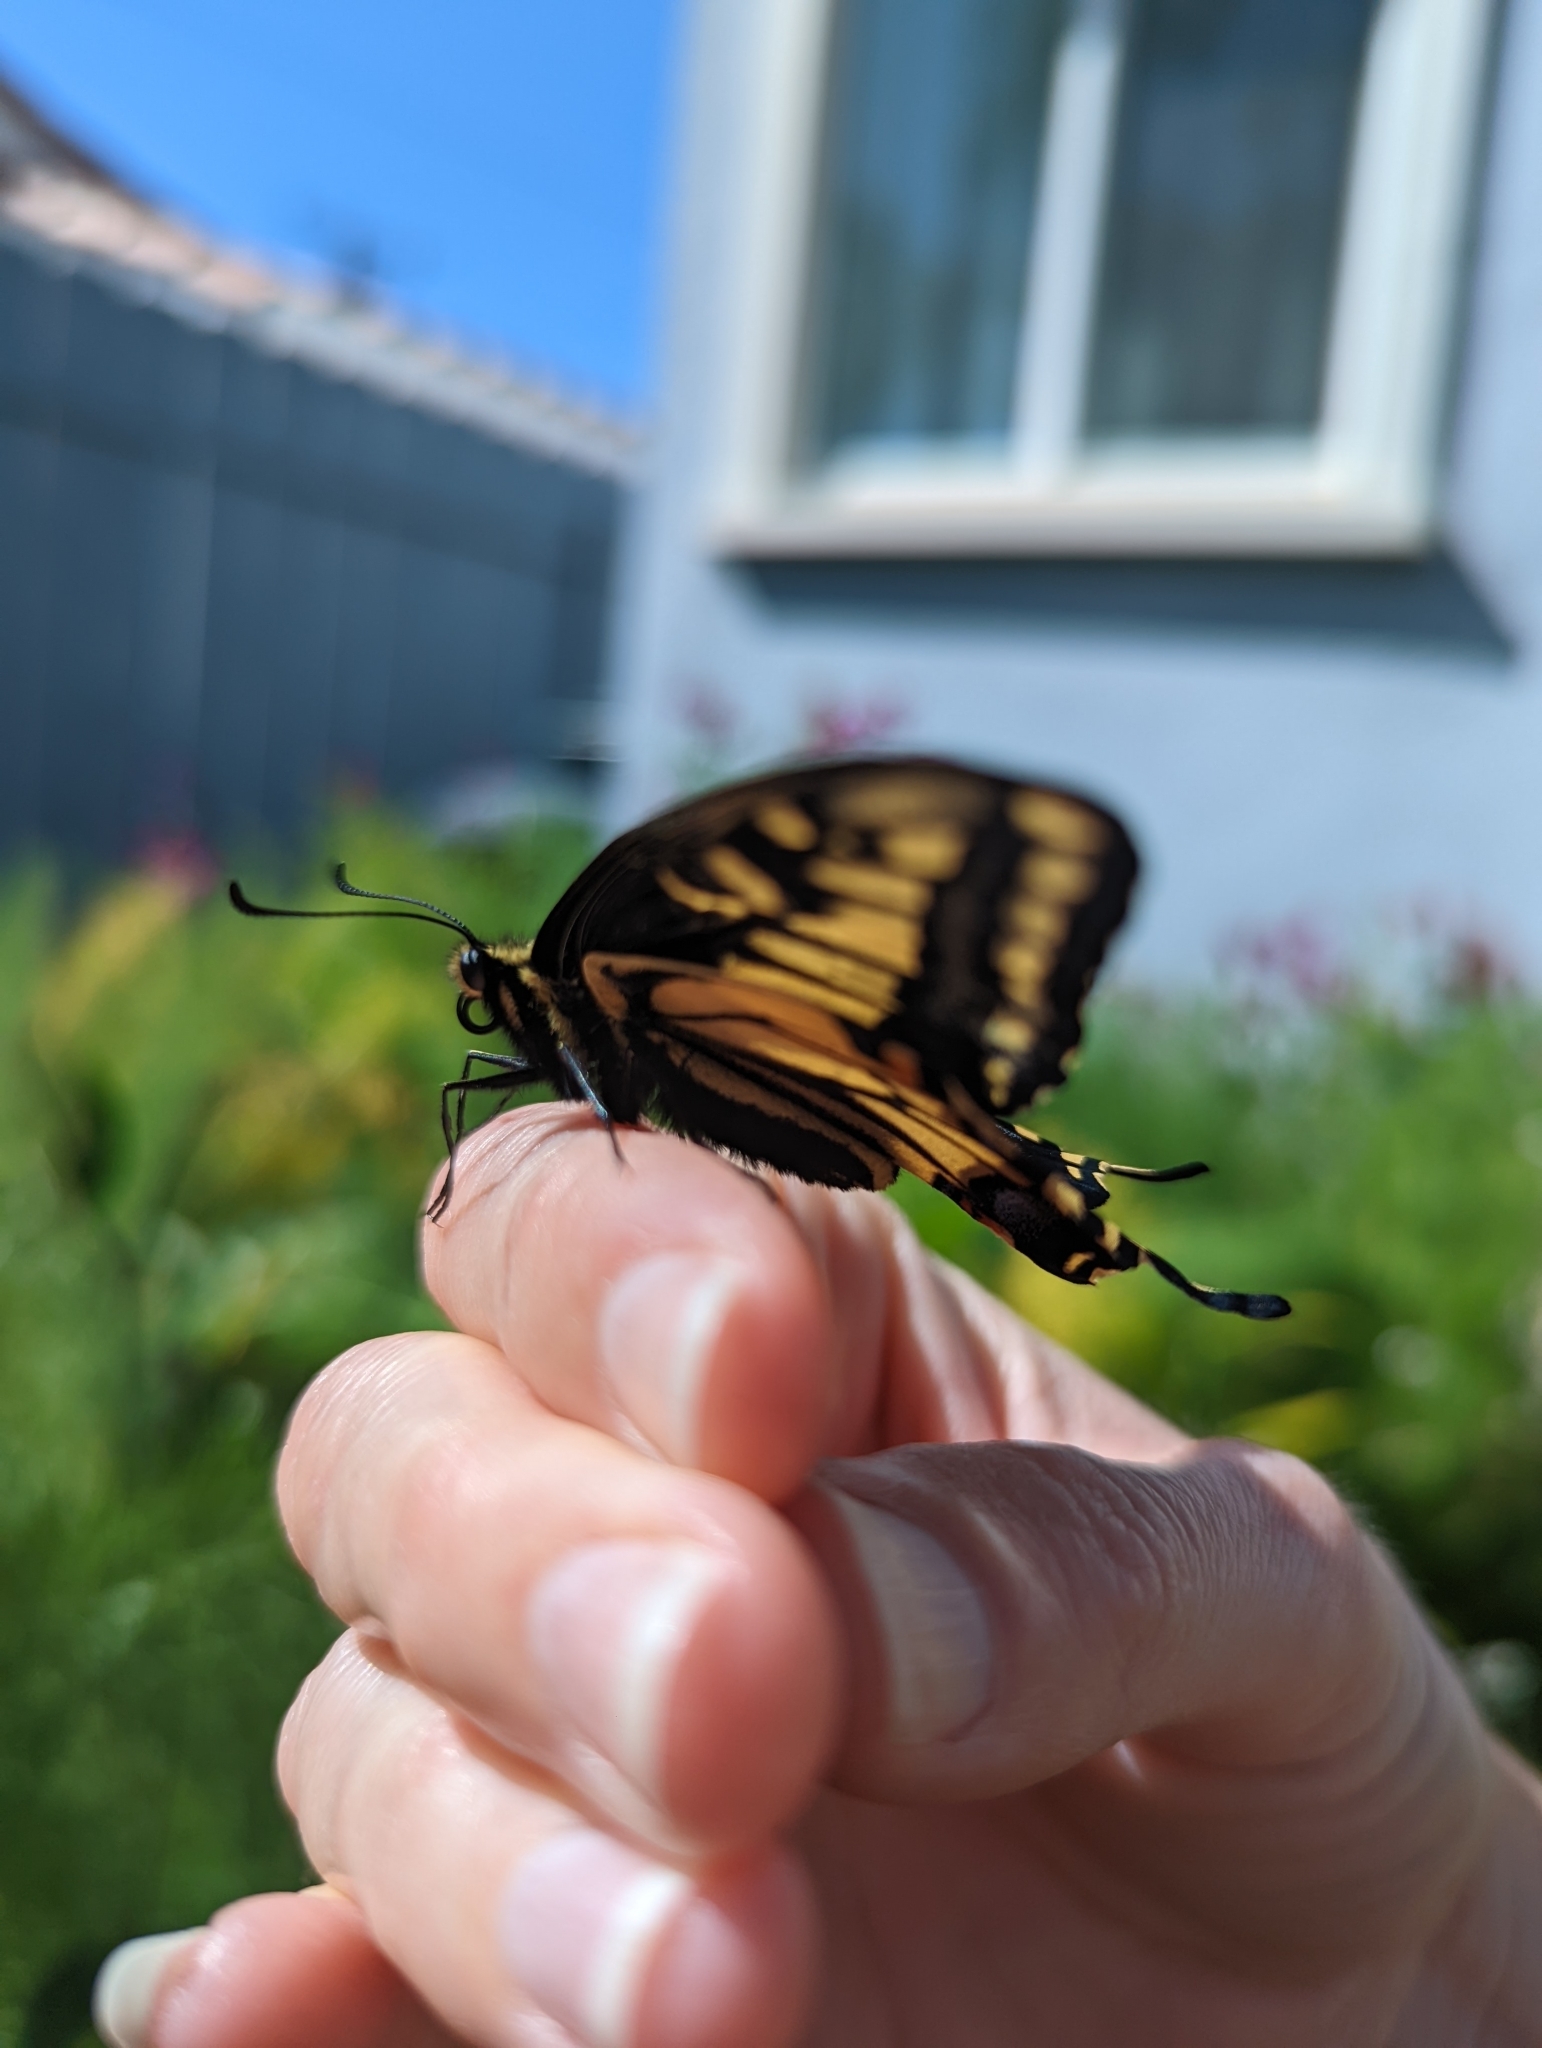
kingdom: Animalia
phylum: Arthropoda
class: Insecta
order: Lepidoptera
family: Papilionidae
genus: Papilio
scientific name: Papilio zelicaon
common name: Anise swallowtail
